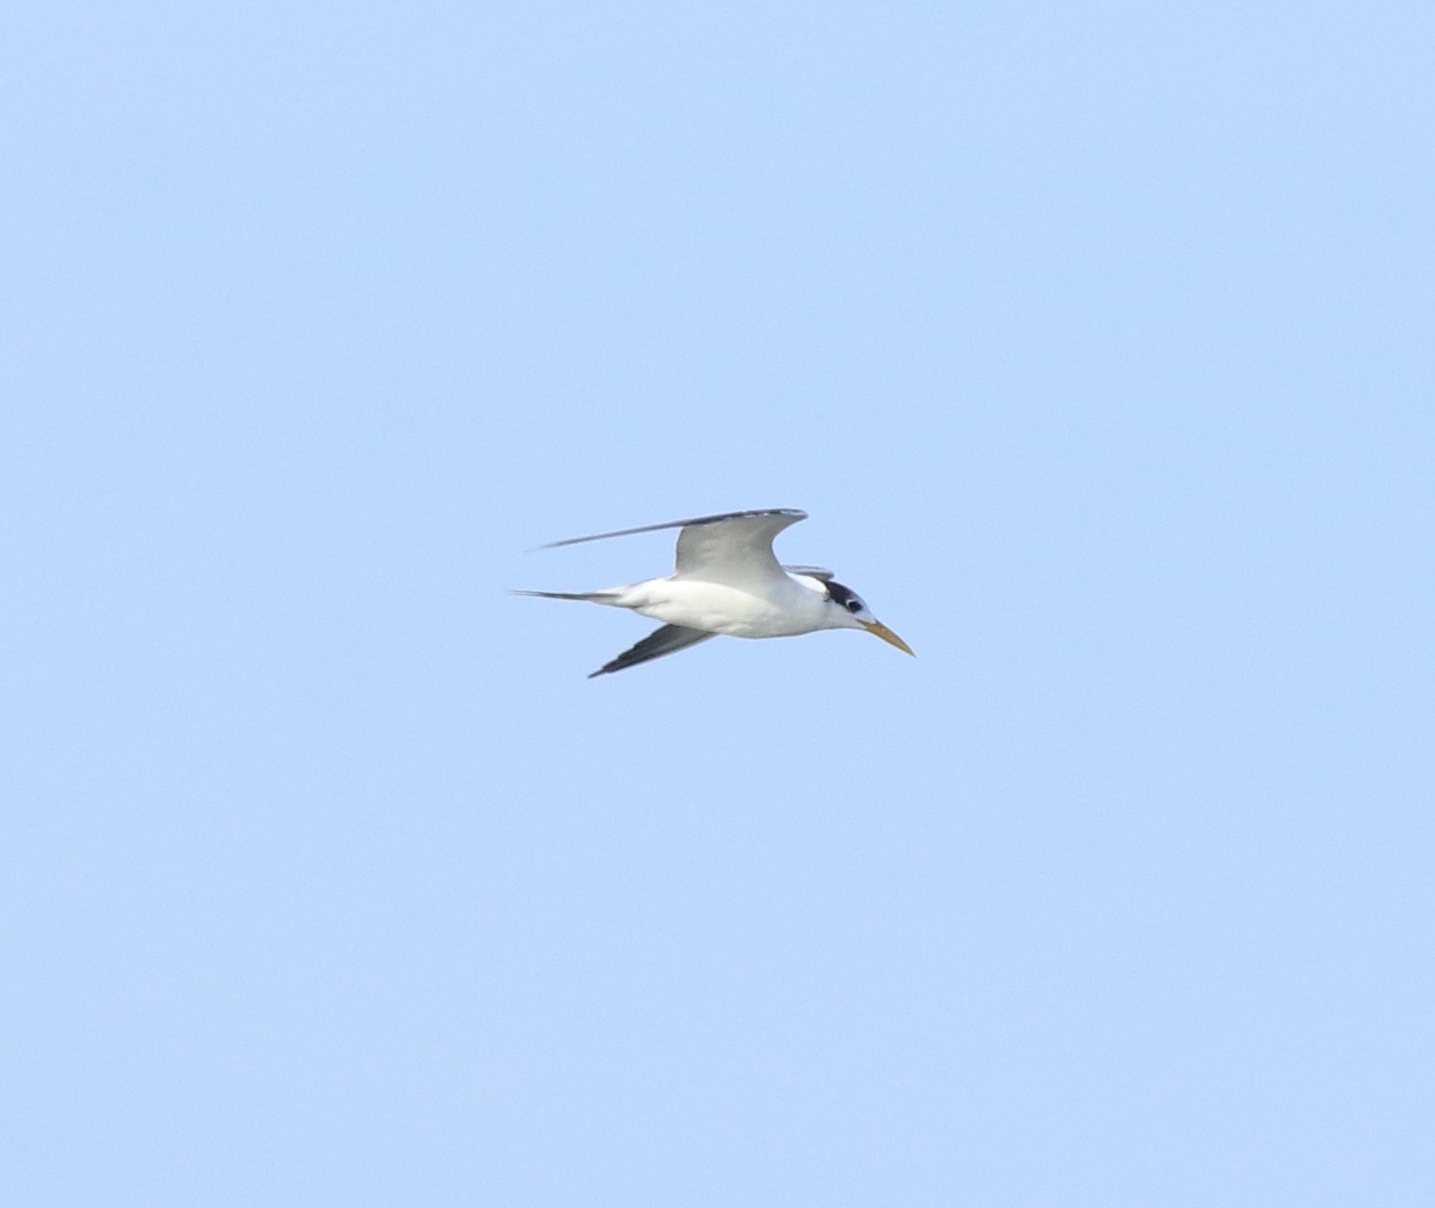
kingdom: Animalia
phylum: Chordata
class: Aves
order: Charadriiformes
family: Laridae
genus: Thalasseus
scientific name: Thalasseus bergii
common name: Greater crested tern
